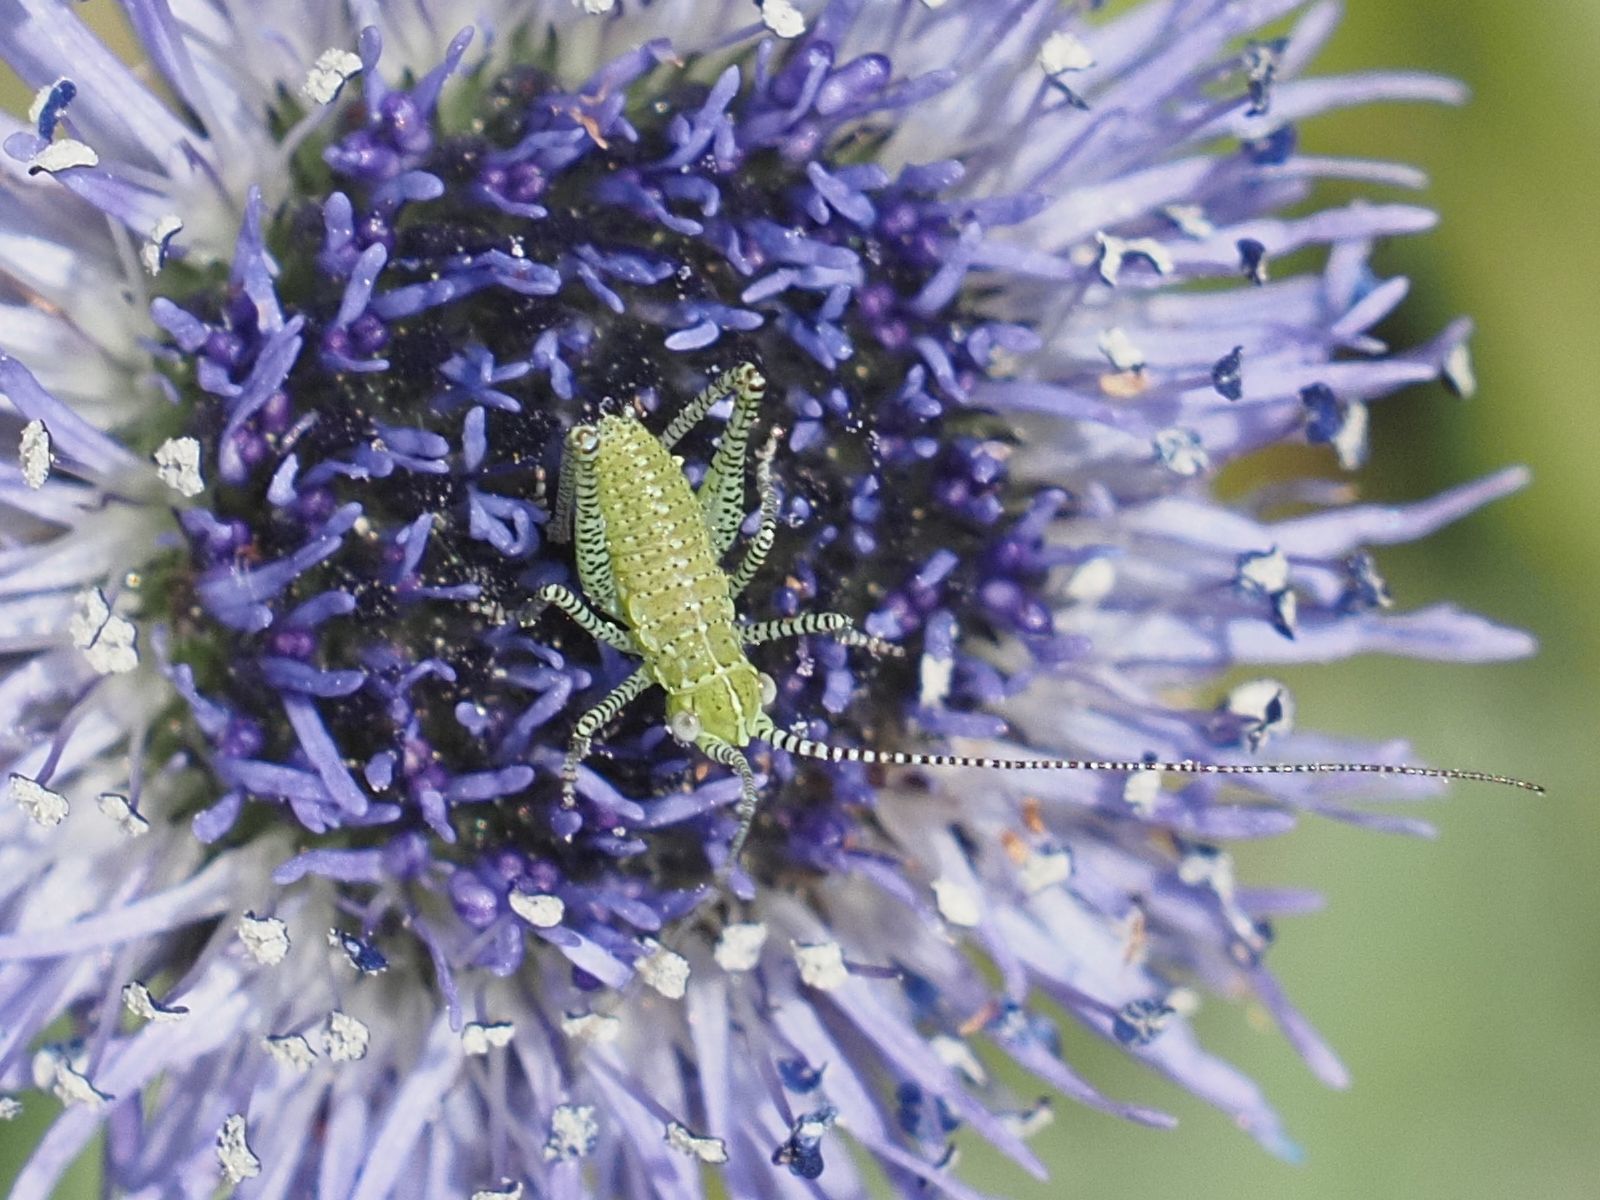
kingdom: Animalia
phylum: Arthropoda
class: Insecta
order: Orthoptera
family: Tettigoniidae
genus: Leptophyes
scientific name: Leptophyes albovittata
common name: Striped bush-cricket
